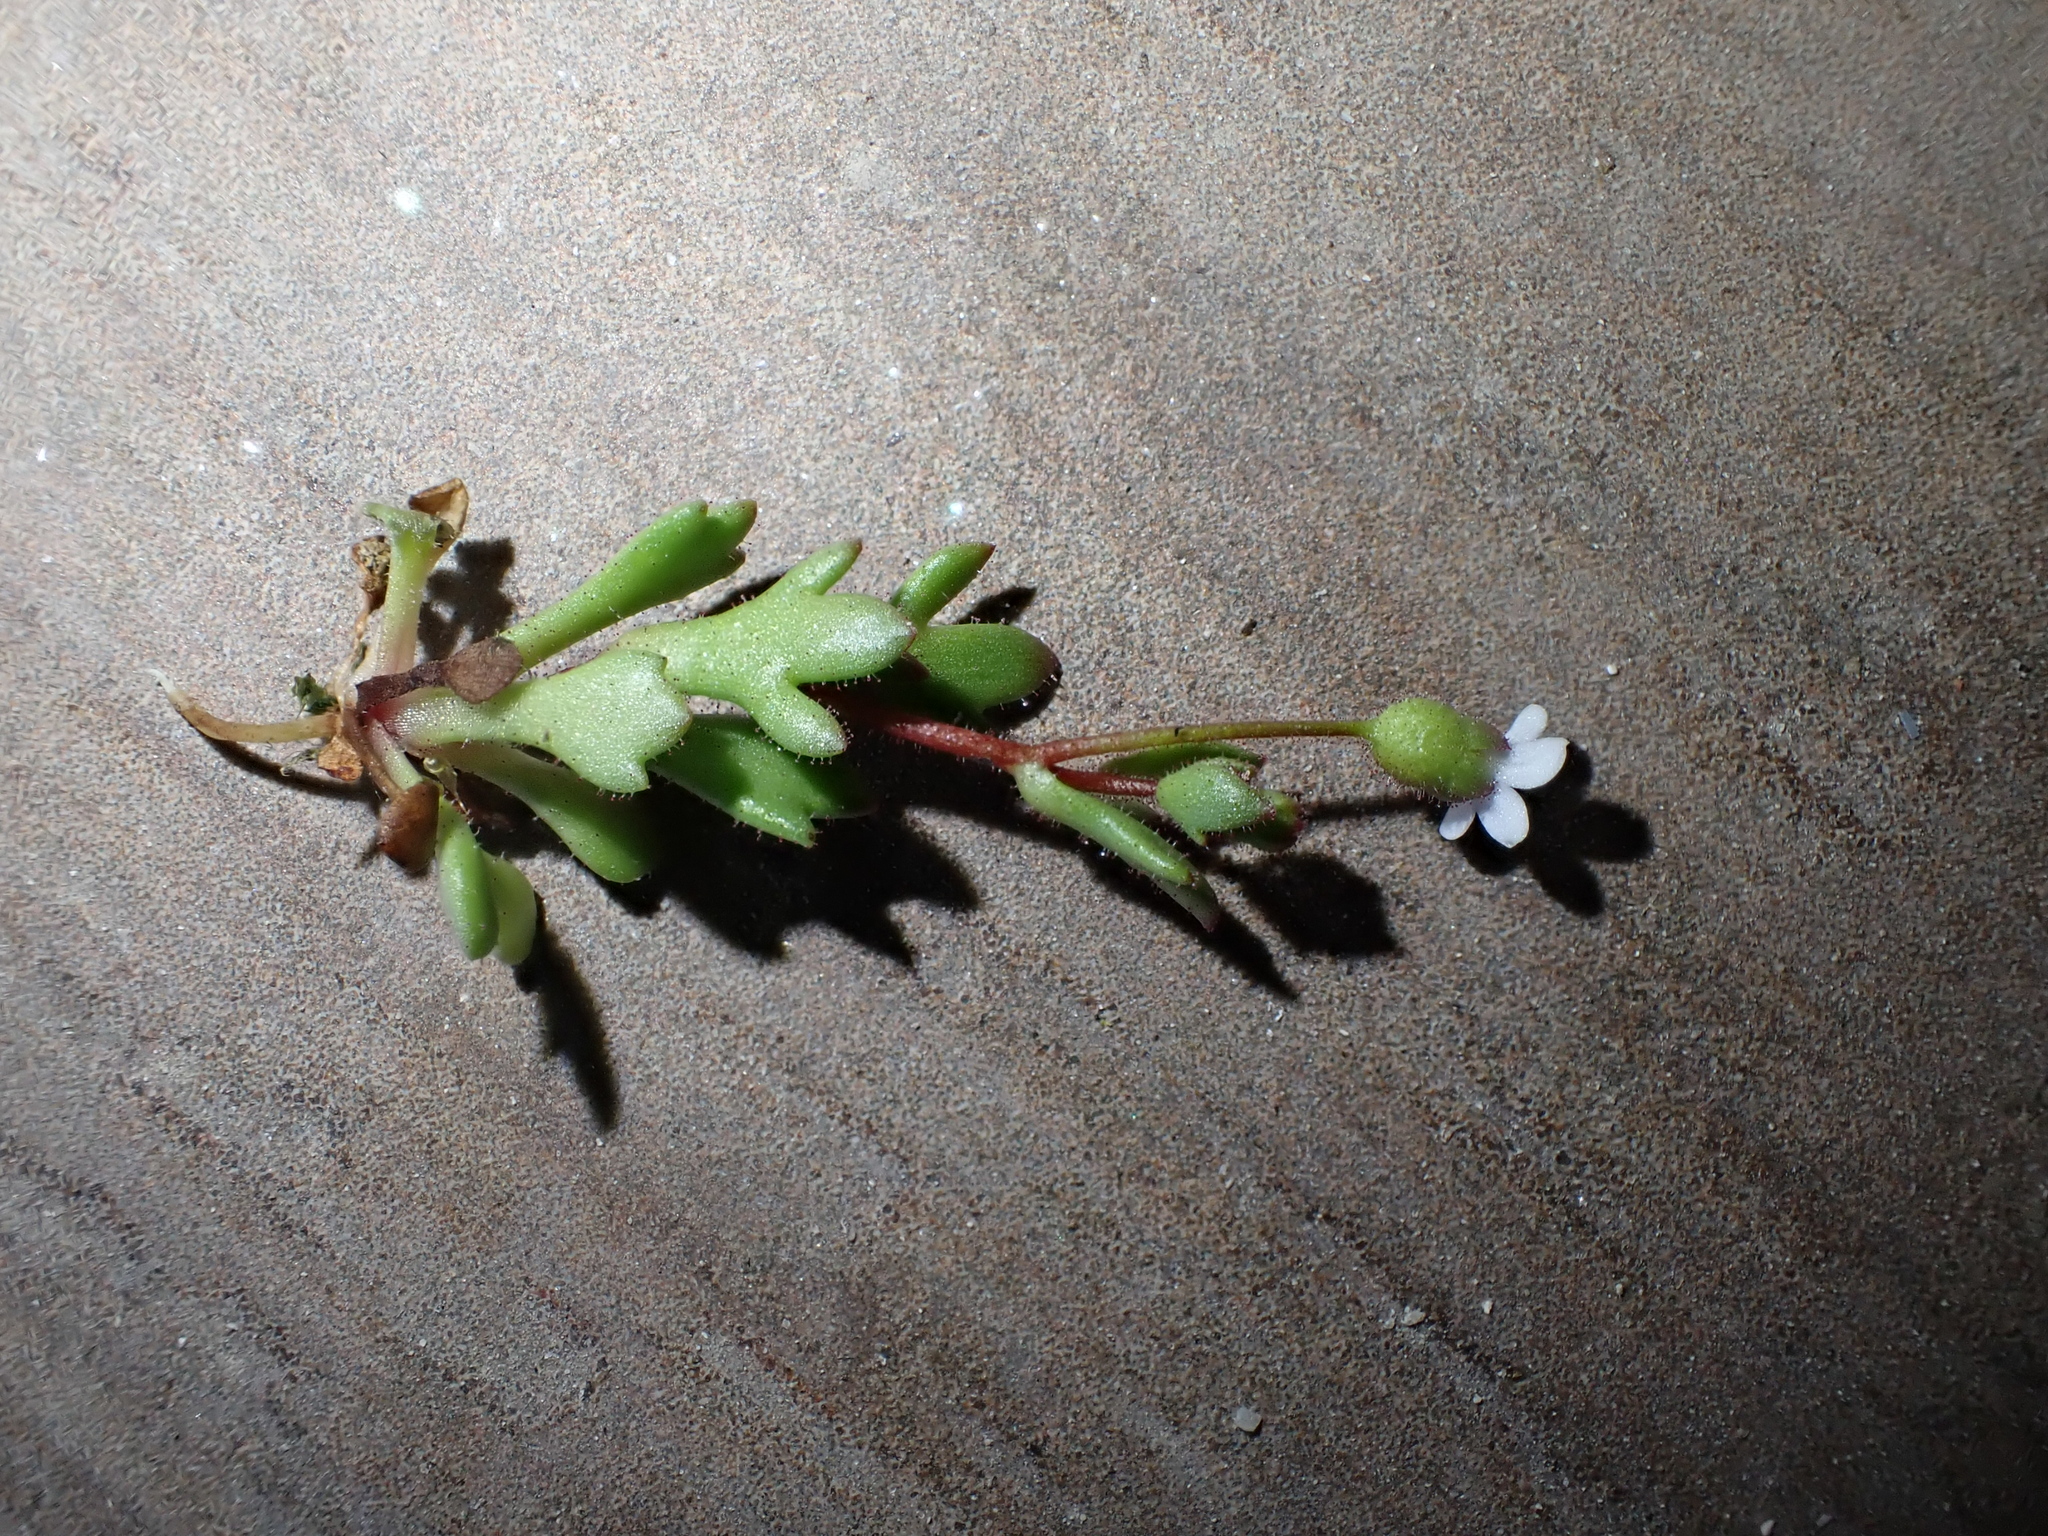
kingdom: Plantae
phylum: Tracheophyta
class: Magnoliopsida
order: Saxifragales
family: Saxifragaceae
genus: Saxifraga
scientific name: Saxifraga tridactylites
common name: Rue-leaved saxifrage
